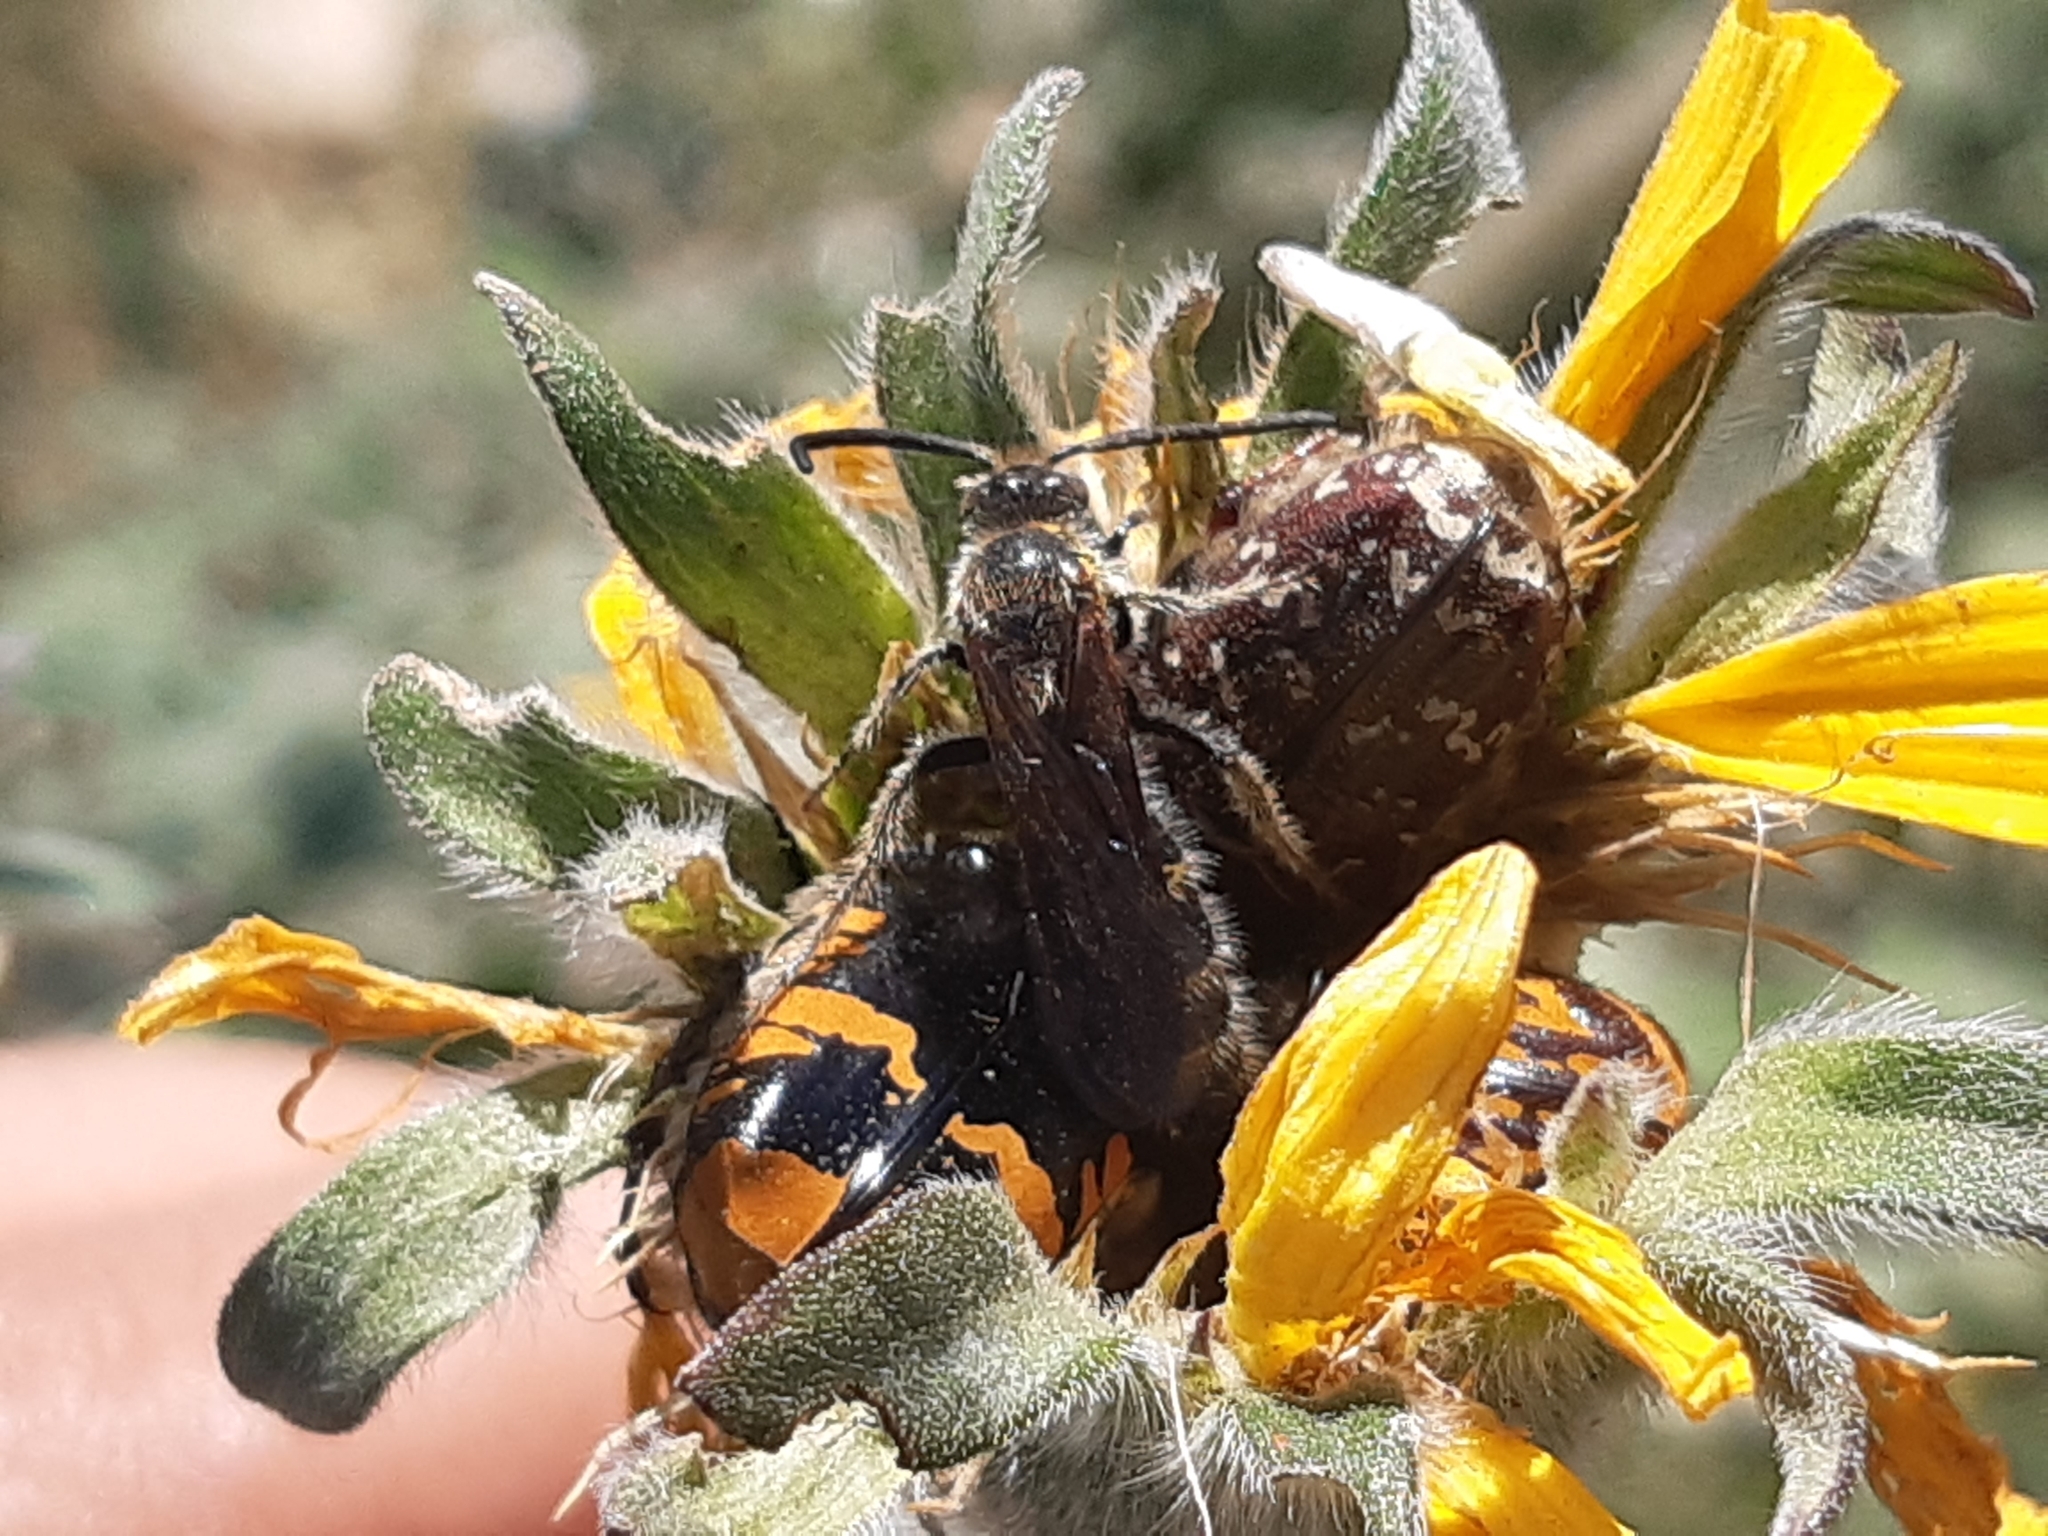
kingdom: Animalia
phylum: Arthropoda
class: Insecta
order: Coleoptera
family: Scarabaeidae
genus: Euphoria
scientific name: Euphoria leucographa
